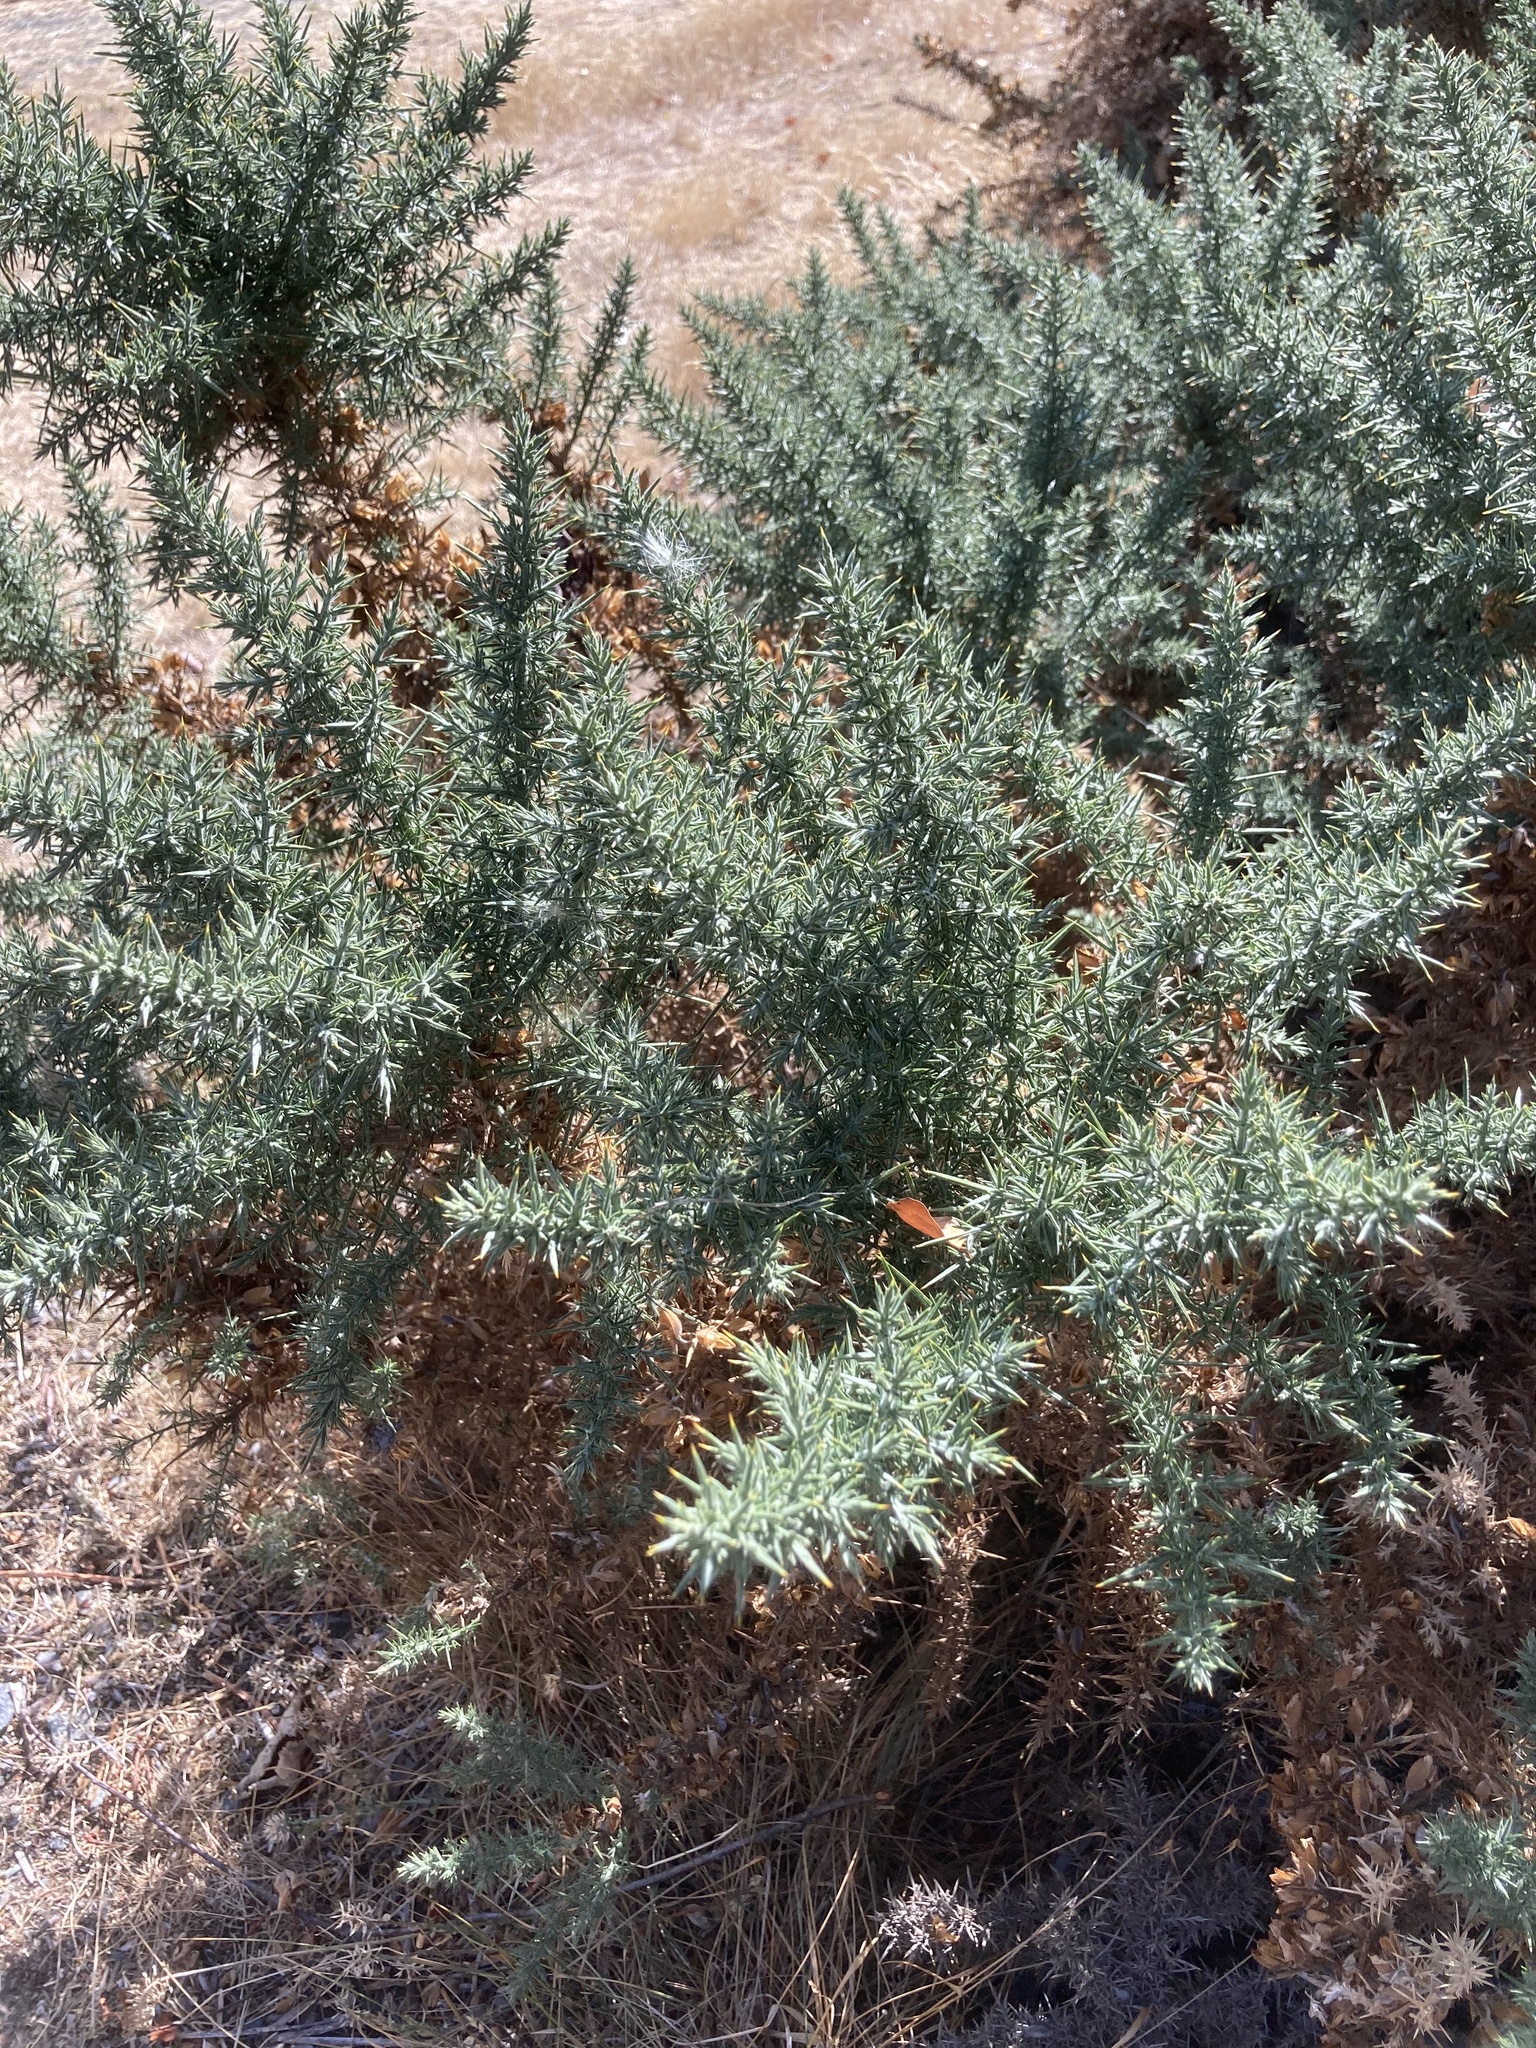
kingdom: Plantae
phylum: Tracheophyta
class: Magnoliopsida
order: Fabales
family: Fabaceae
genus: Ulex
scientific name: Ulex europaeus
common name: Common gorse
